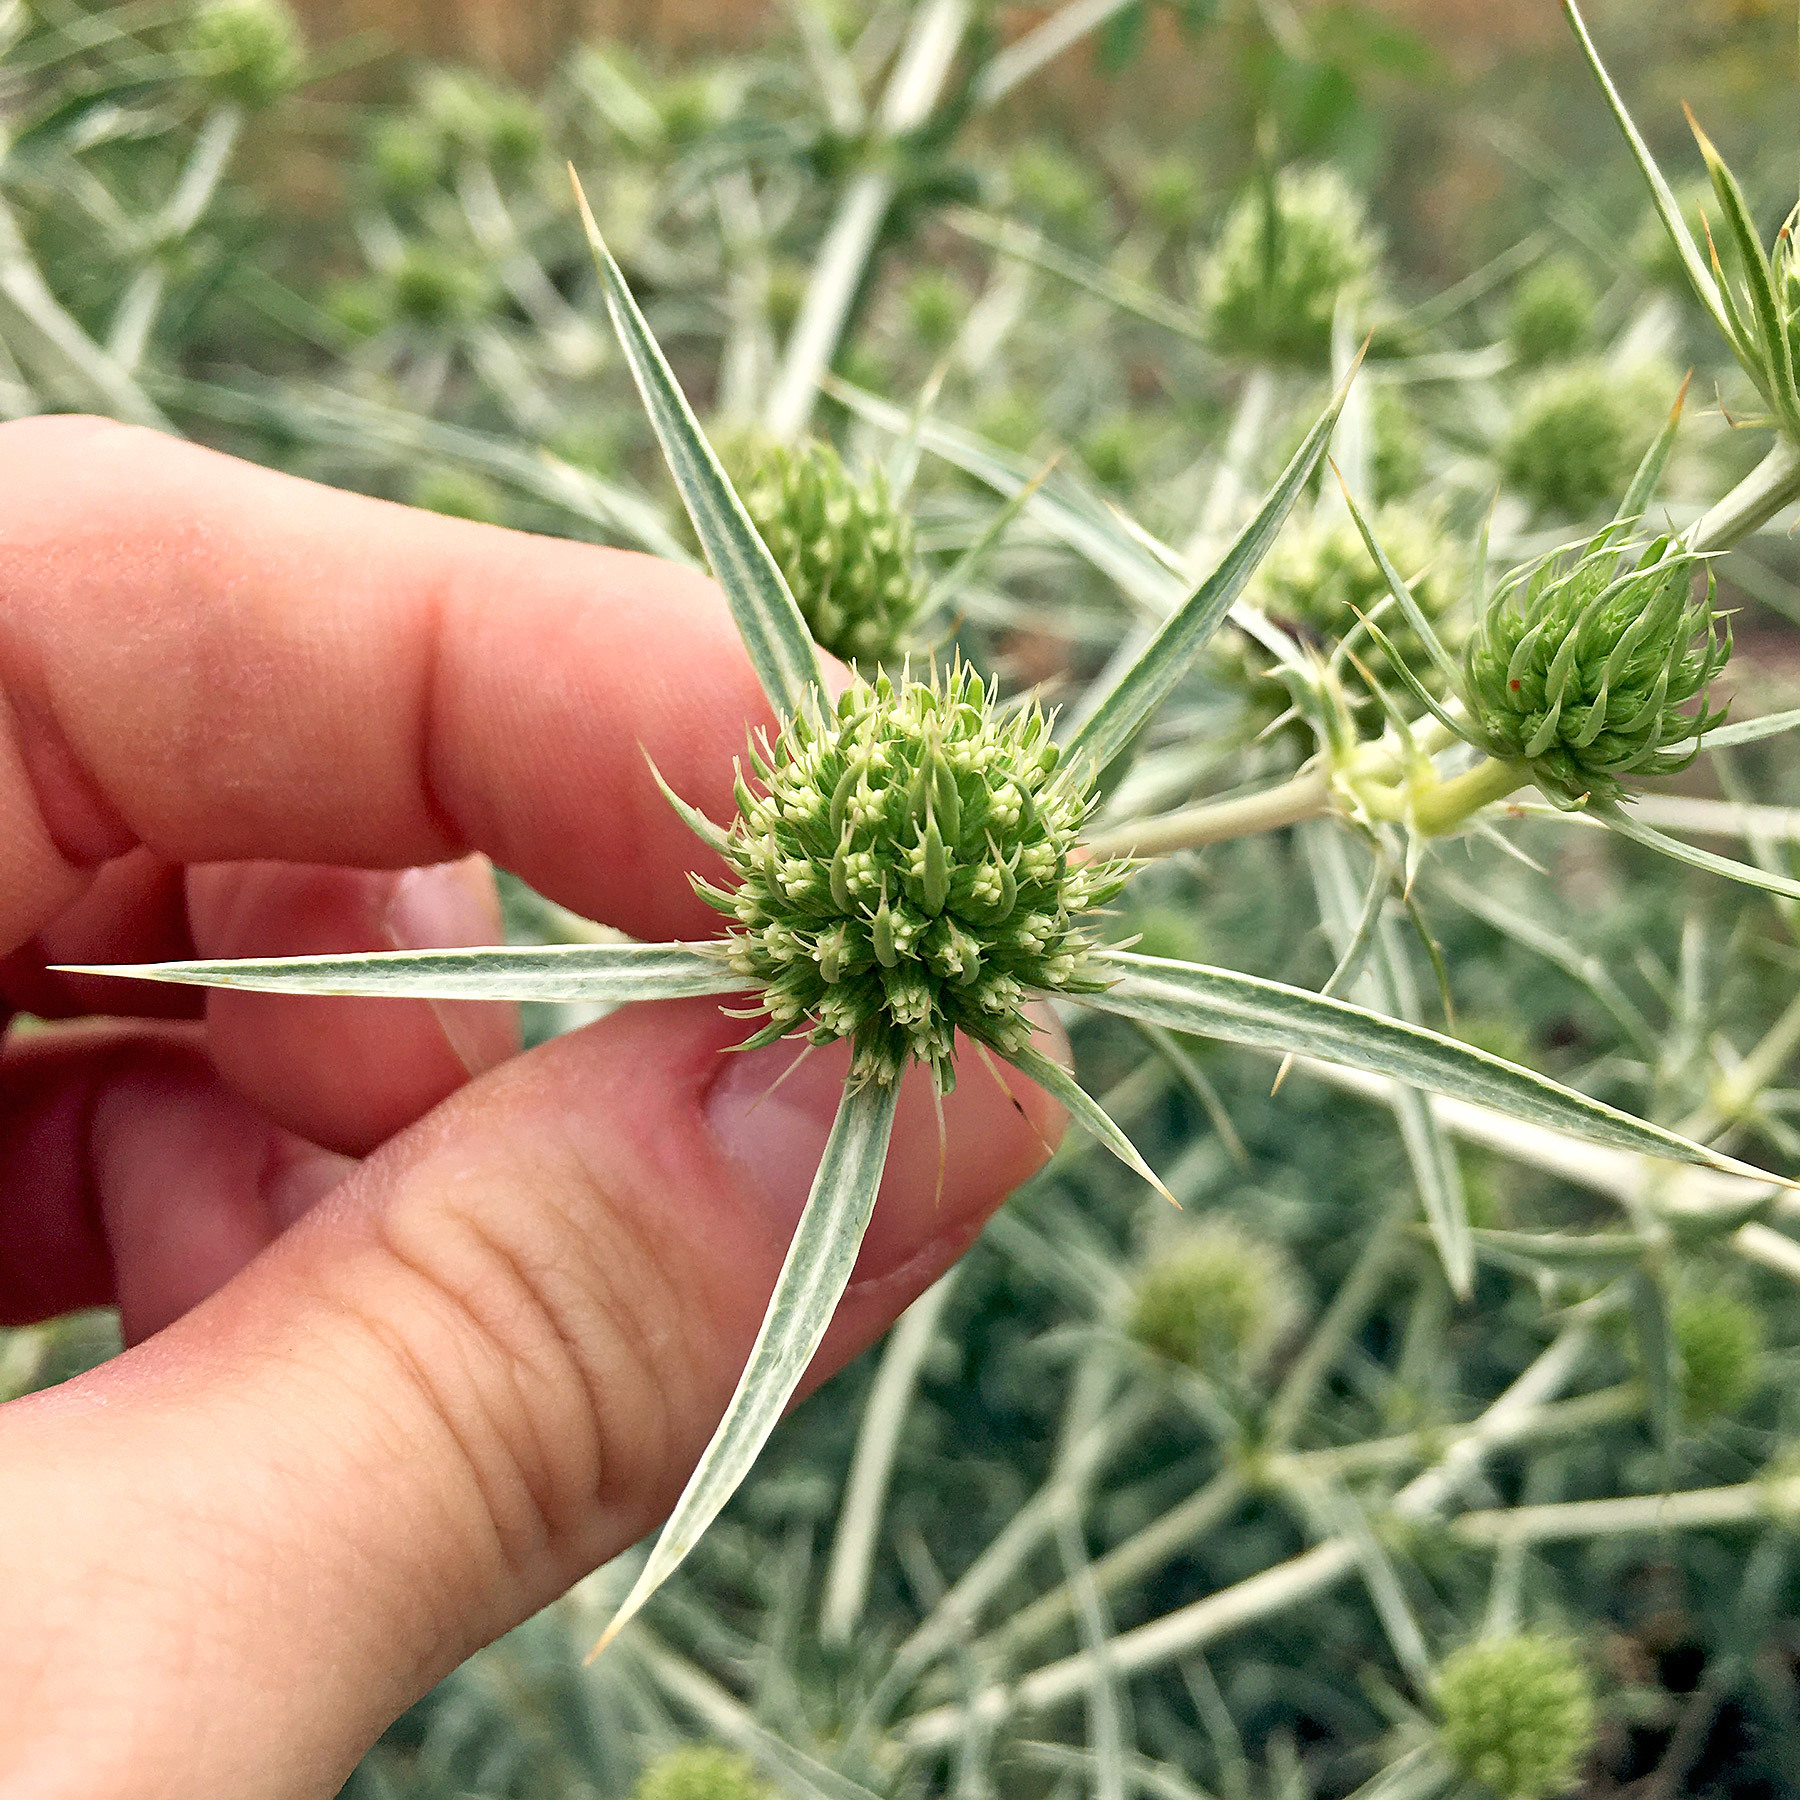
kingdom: Plantae
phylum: Tracheophyta
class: Magnoliopsida
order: Apiales
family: Apiaceae
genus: Eryngium
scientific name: Eryngium campestre
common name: Field eryngo
